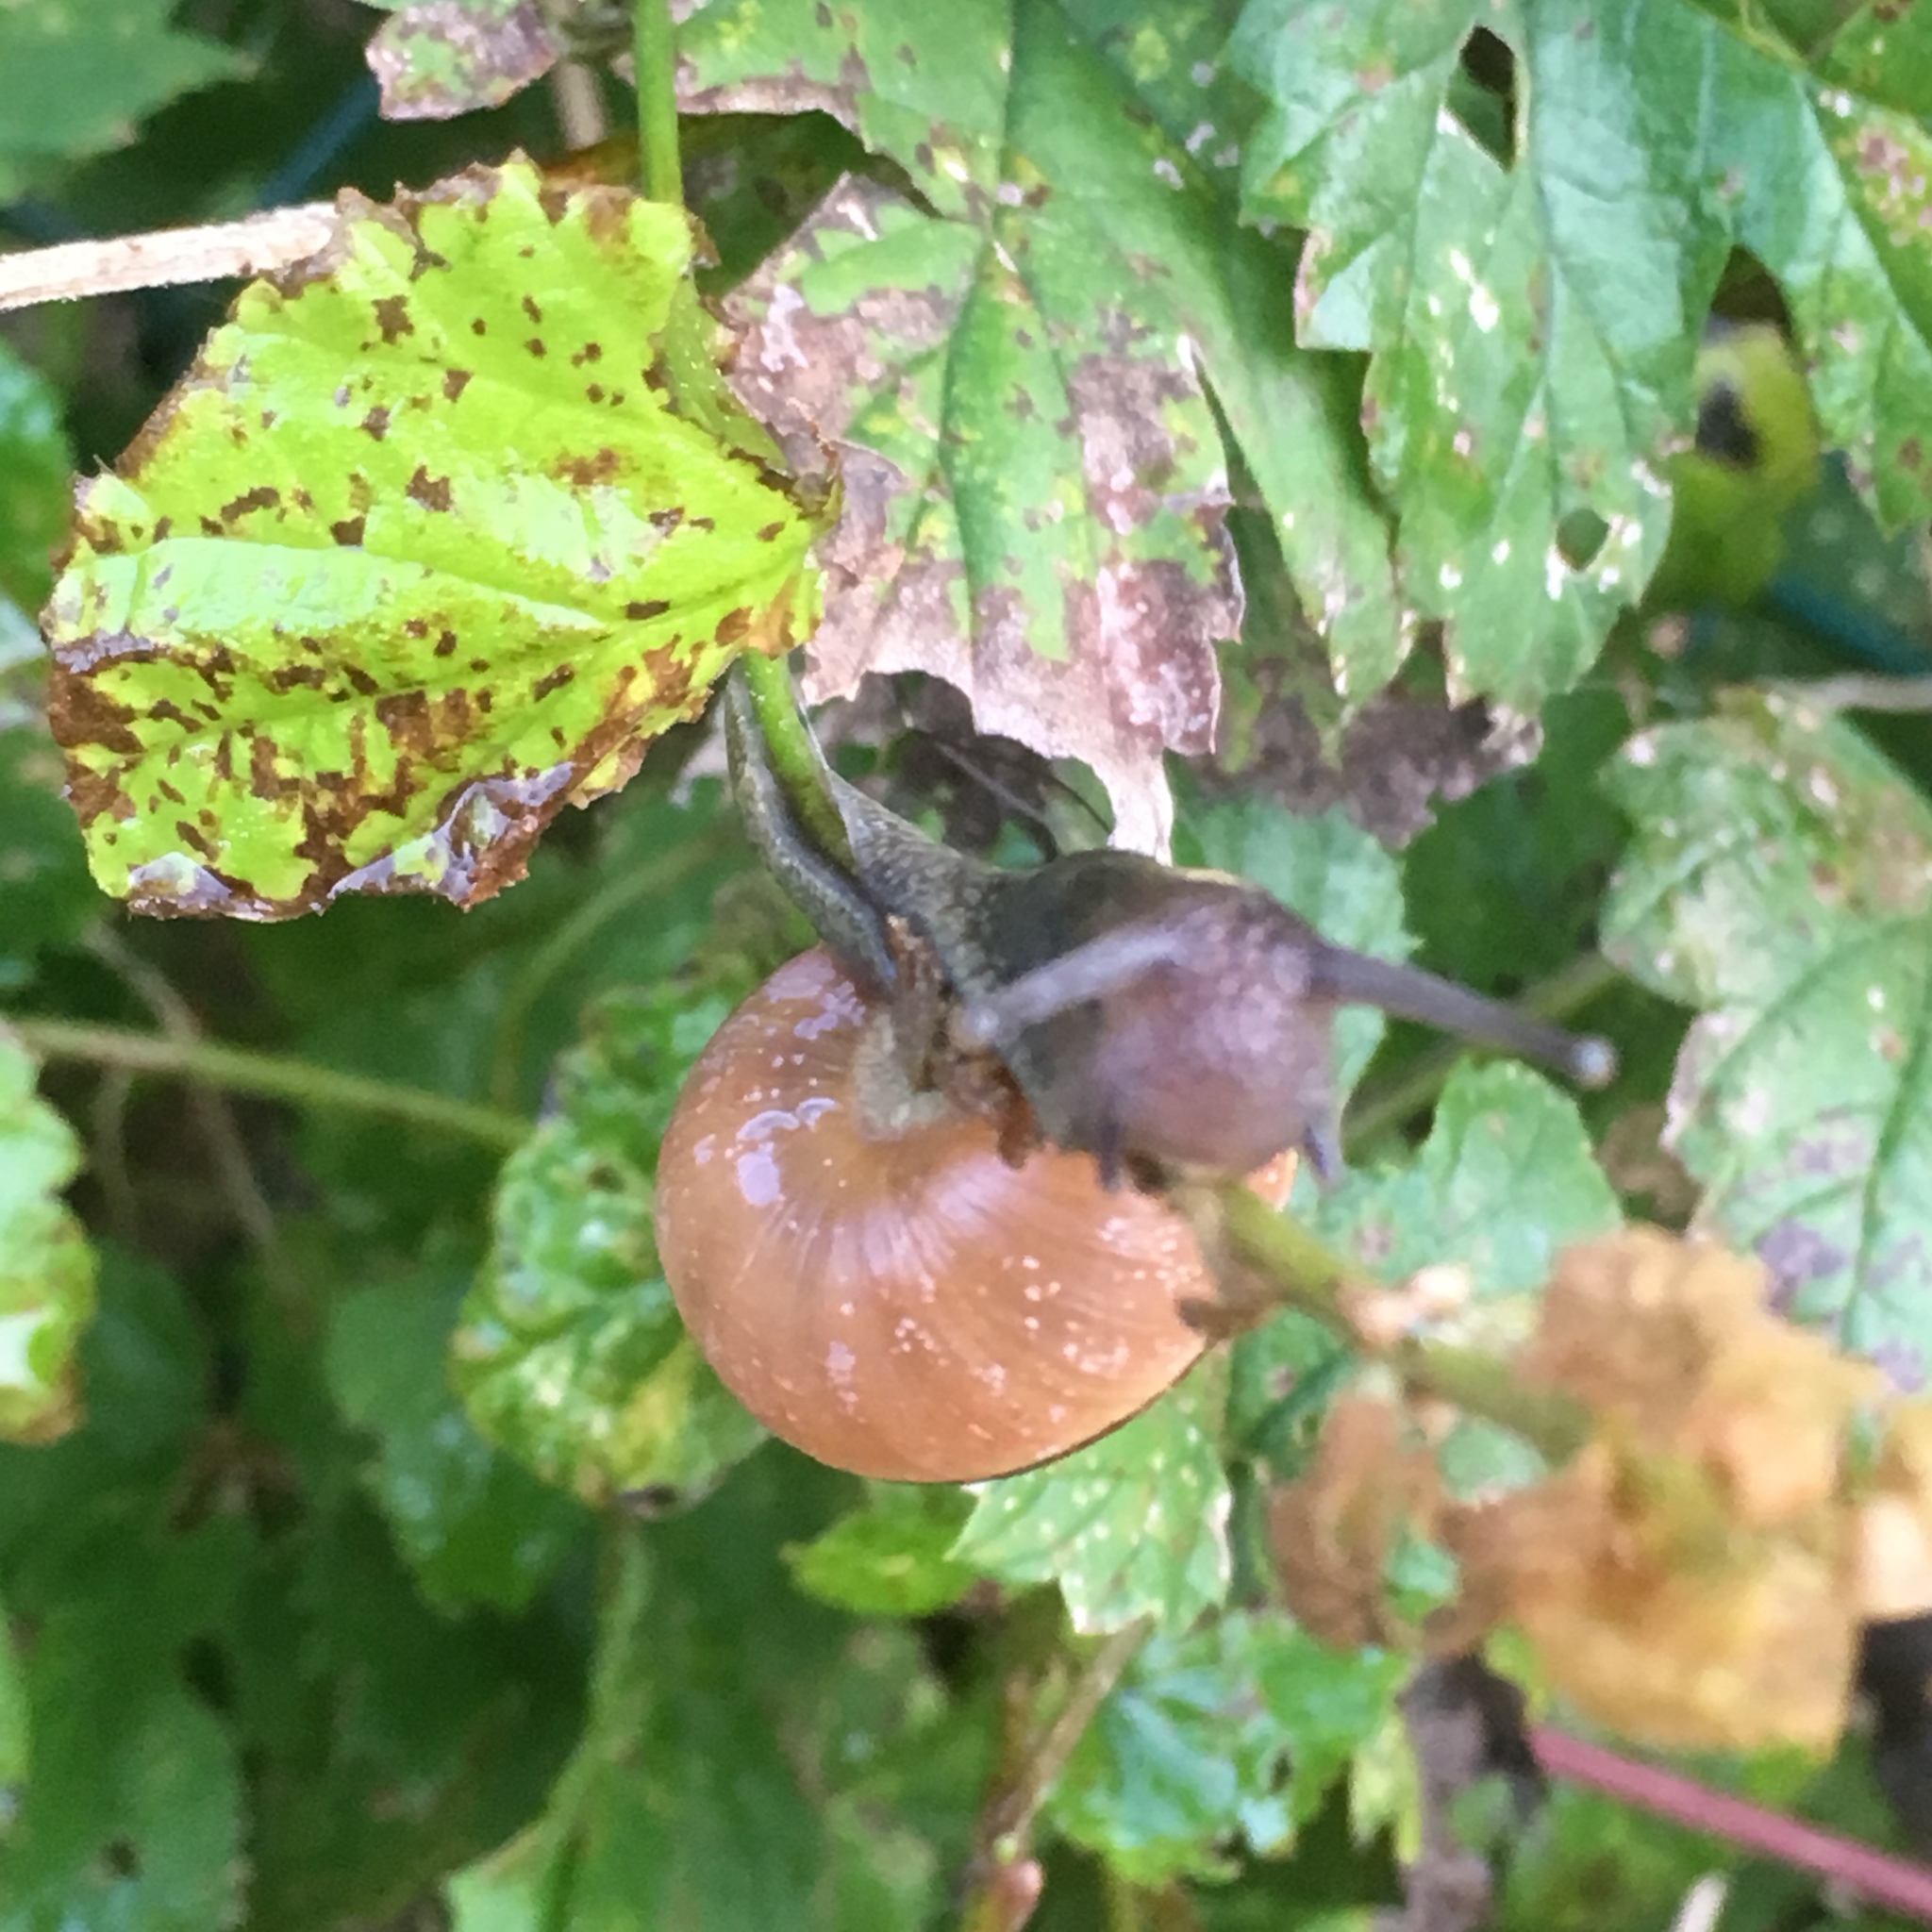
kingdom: Animalia
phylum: Mollusca
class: Gastropoda
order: Stylommatophora
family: Helicidae
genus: Cepaea
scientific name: Cepaea nemoralis
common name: Grovesnail
